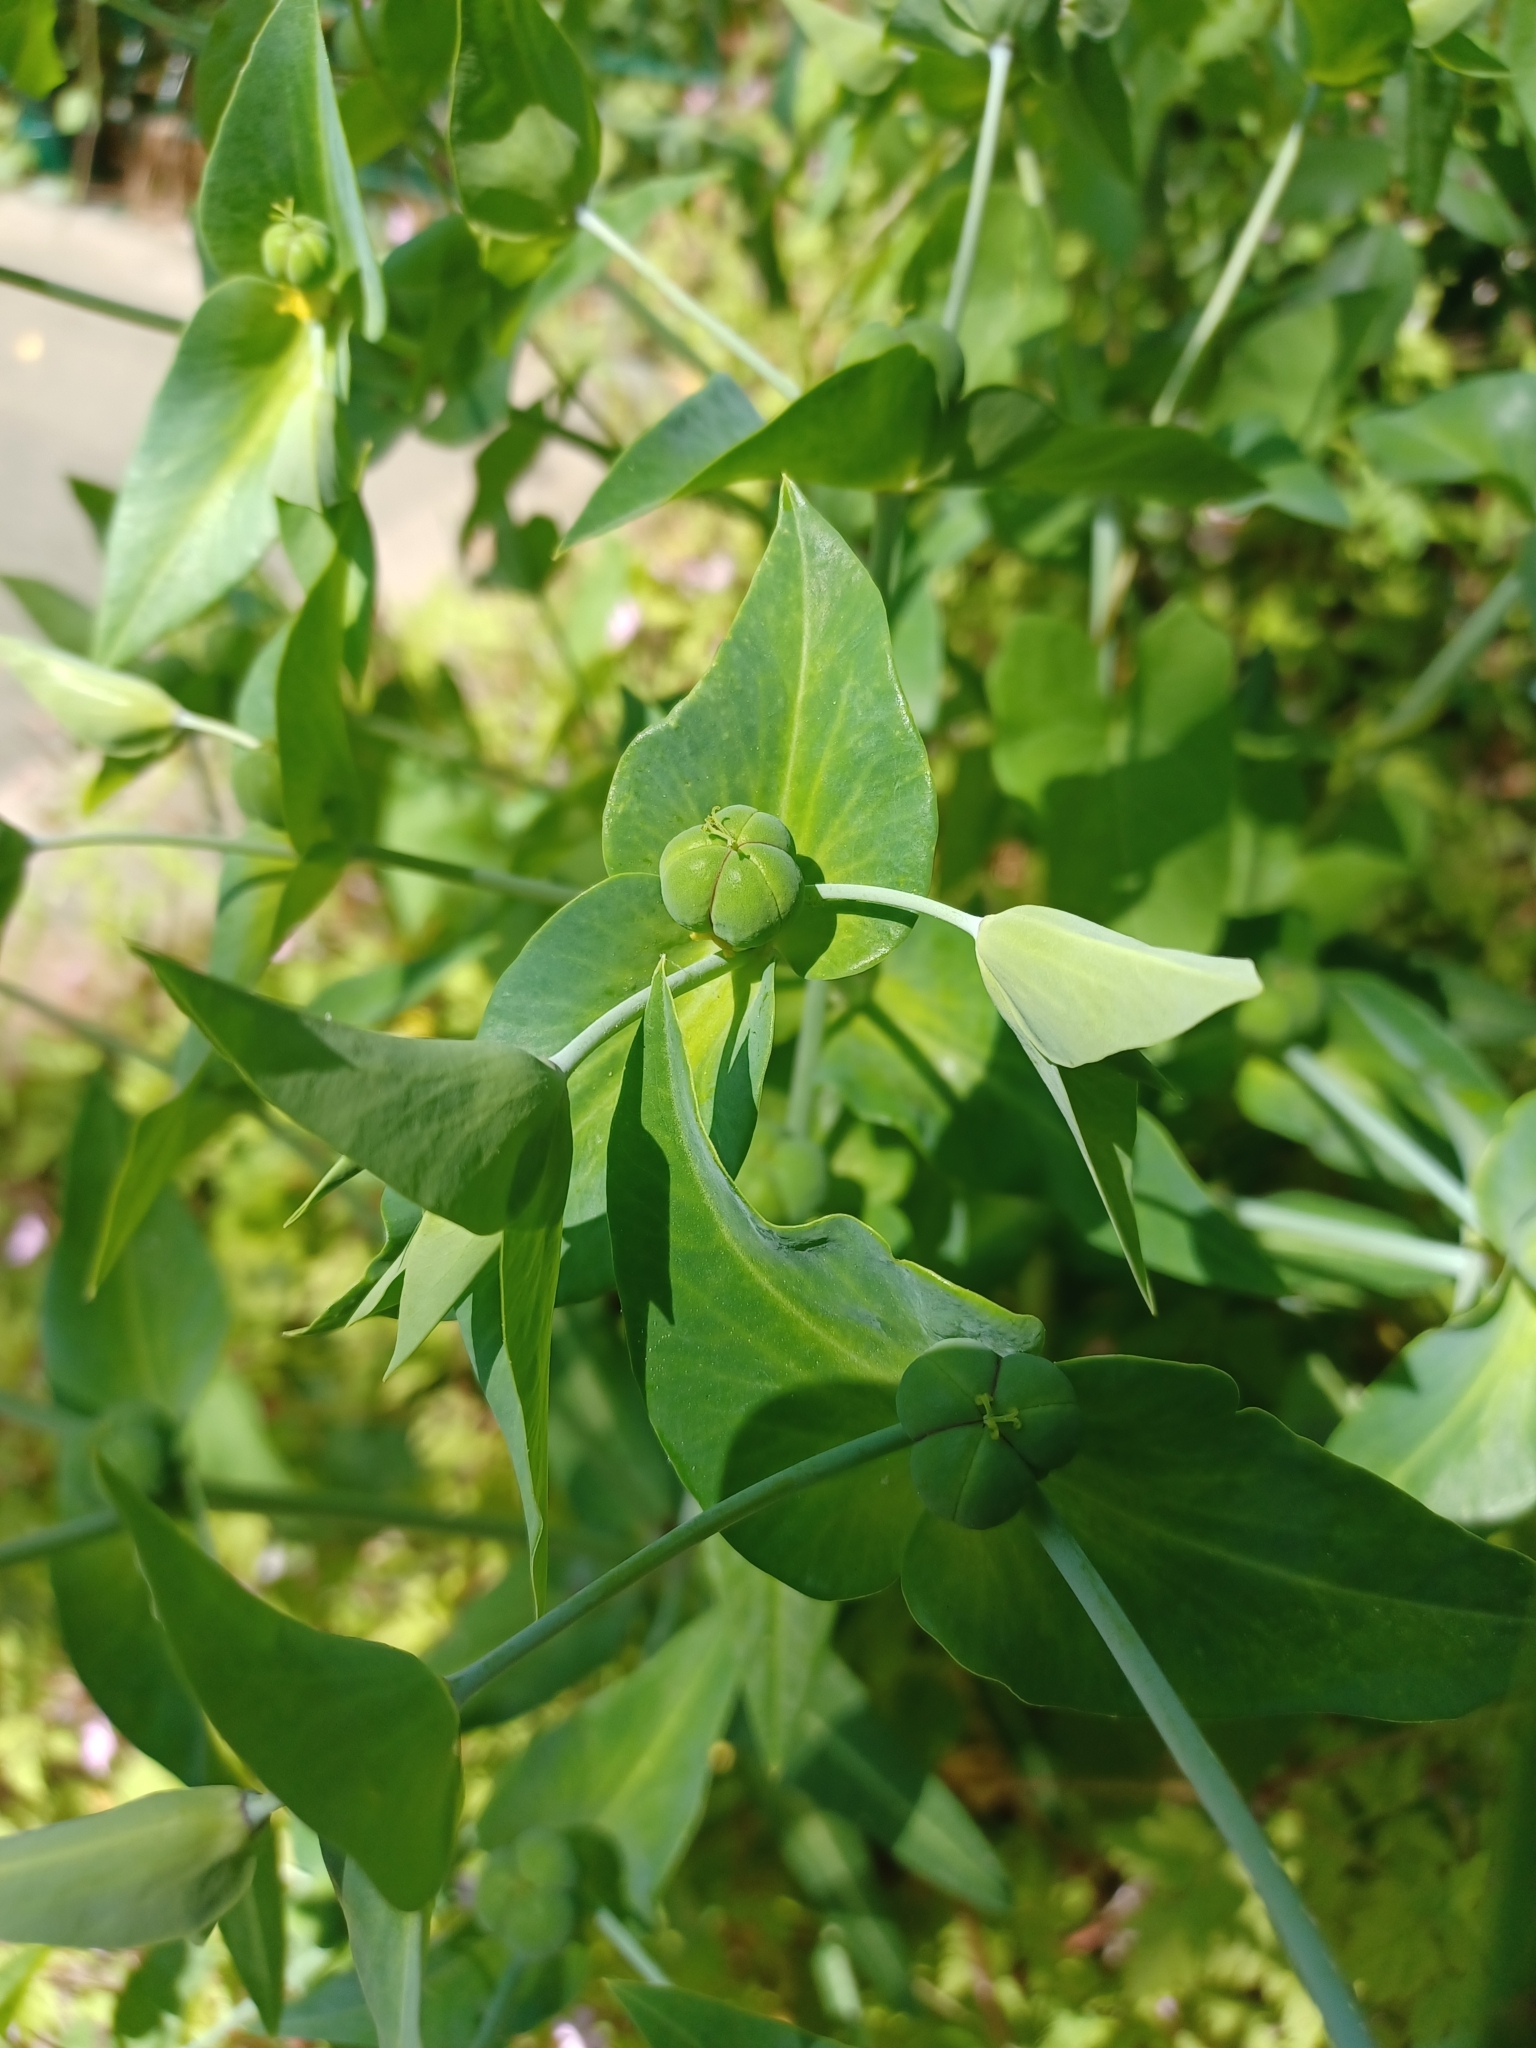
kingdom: Plantae
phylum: Tracheophyta
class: Magnoliopsida
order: Malpighiales
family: Euphorbiaceae
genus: Euphorbia
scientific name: Euphorbia lathyris
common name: Caper spurge
